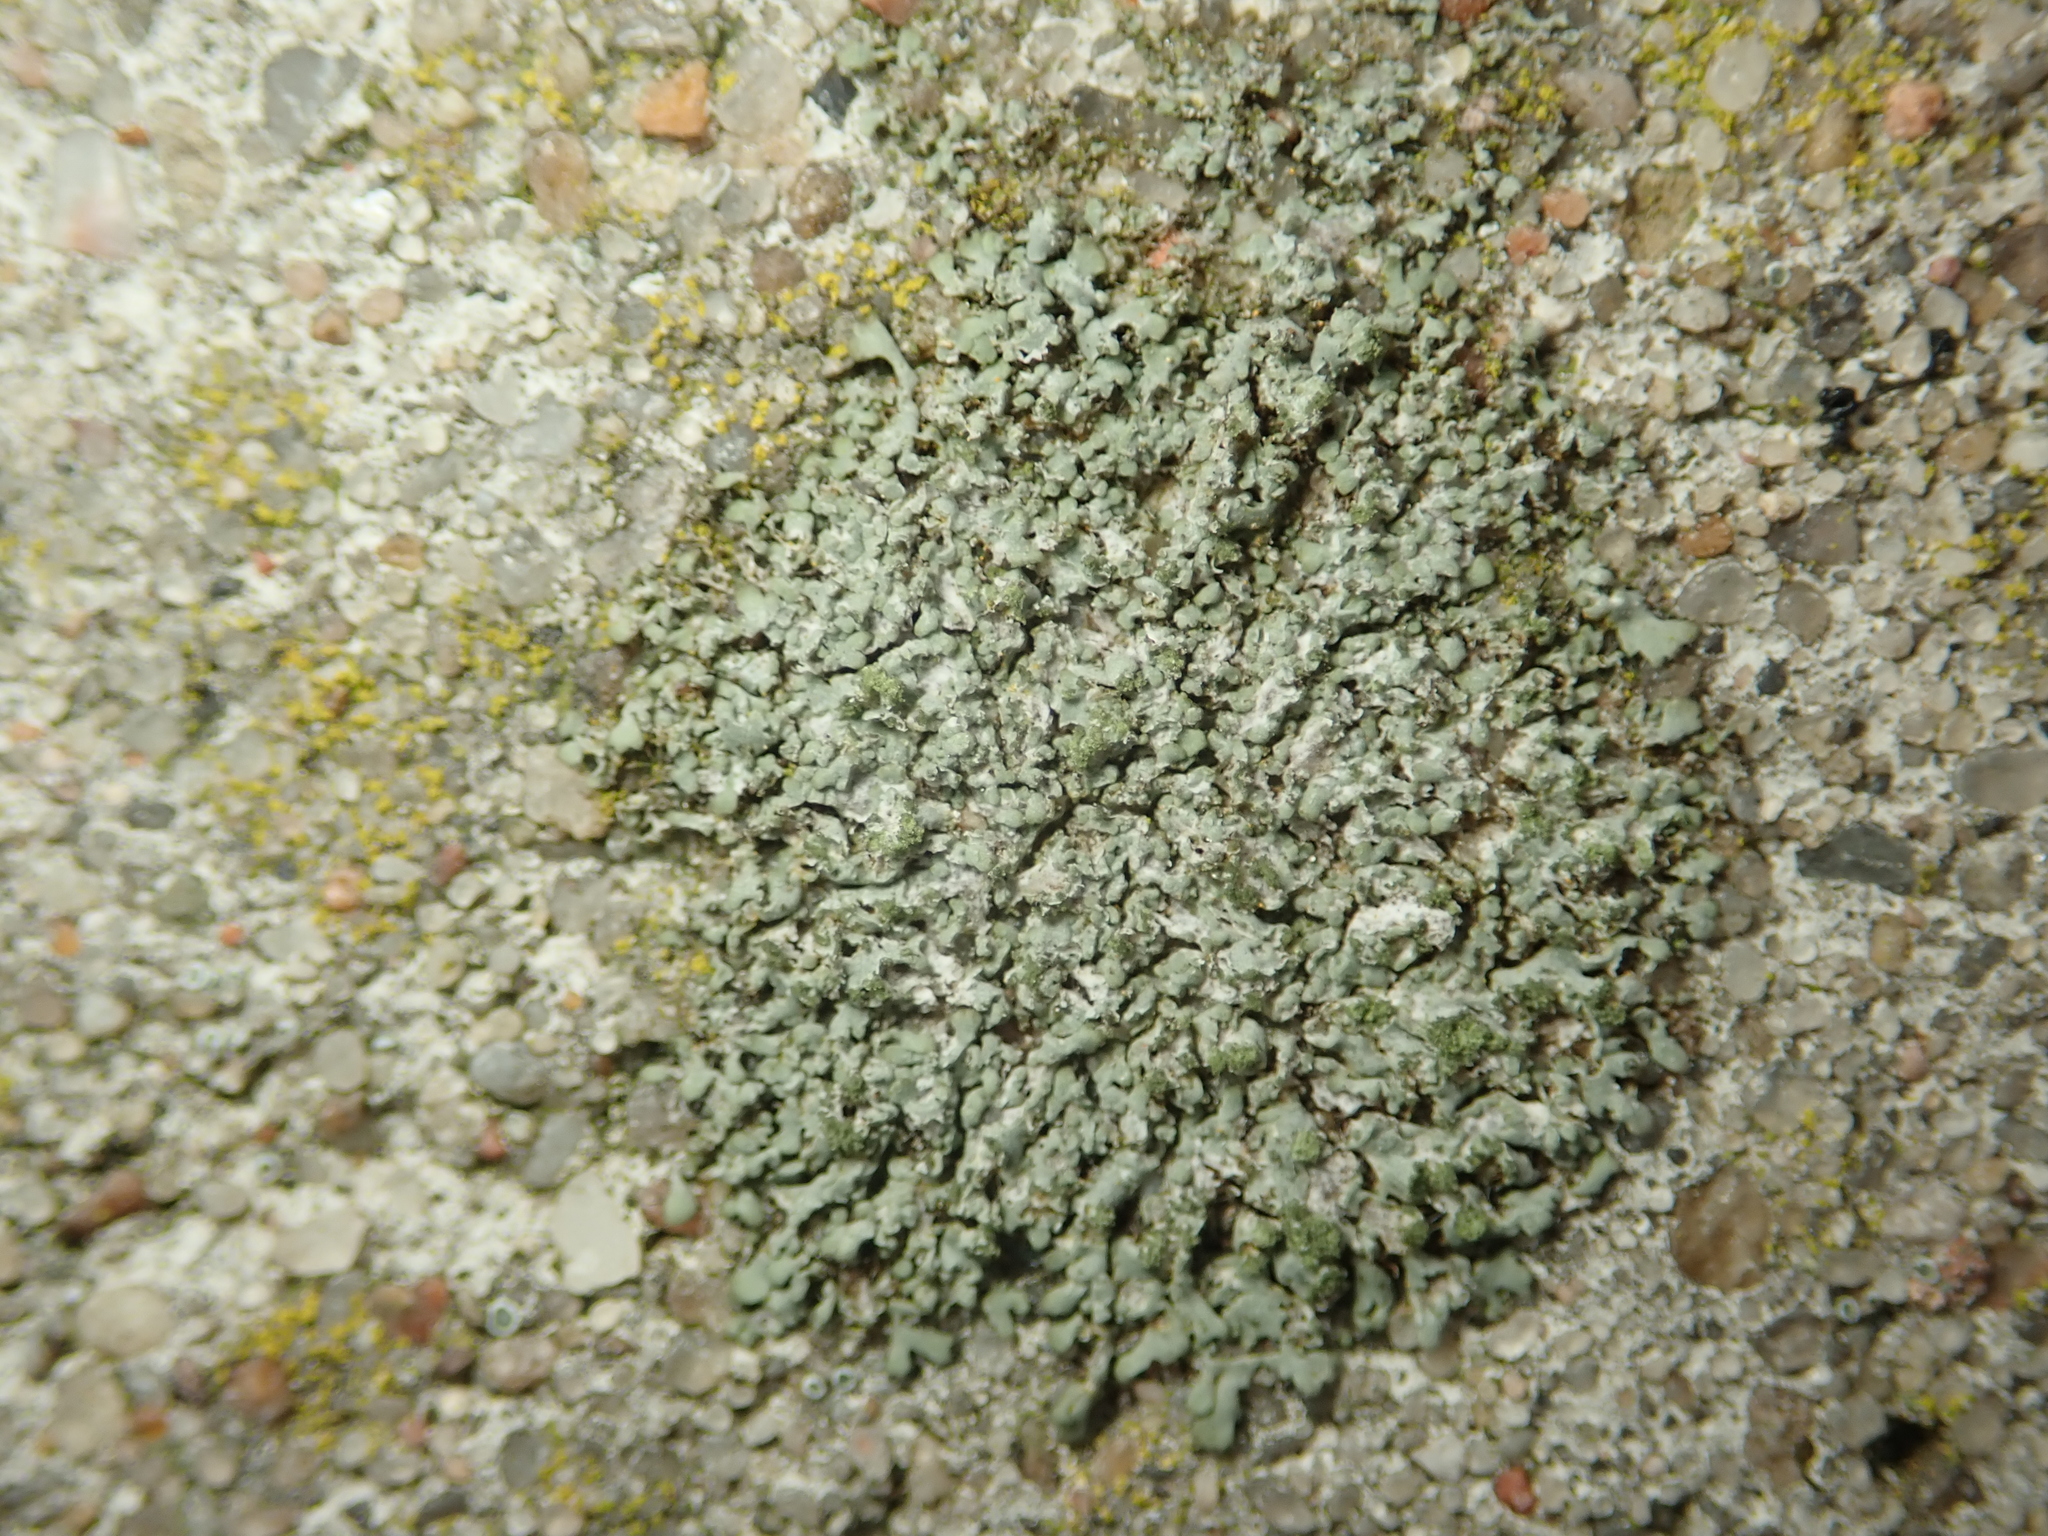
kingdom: Fungi
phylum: Ascomycota
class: Lecanoromycetes
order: Caliciales
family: Physciaceae
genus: Phaeophyscia
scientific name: Phaeophyscia orbicularis
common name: Mealy shadow lichen
